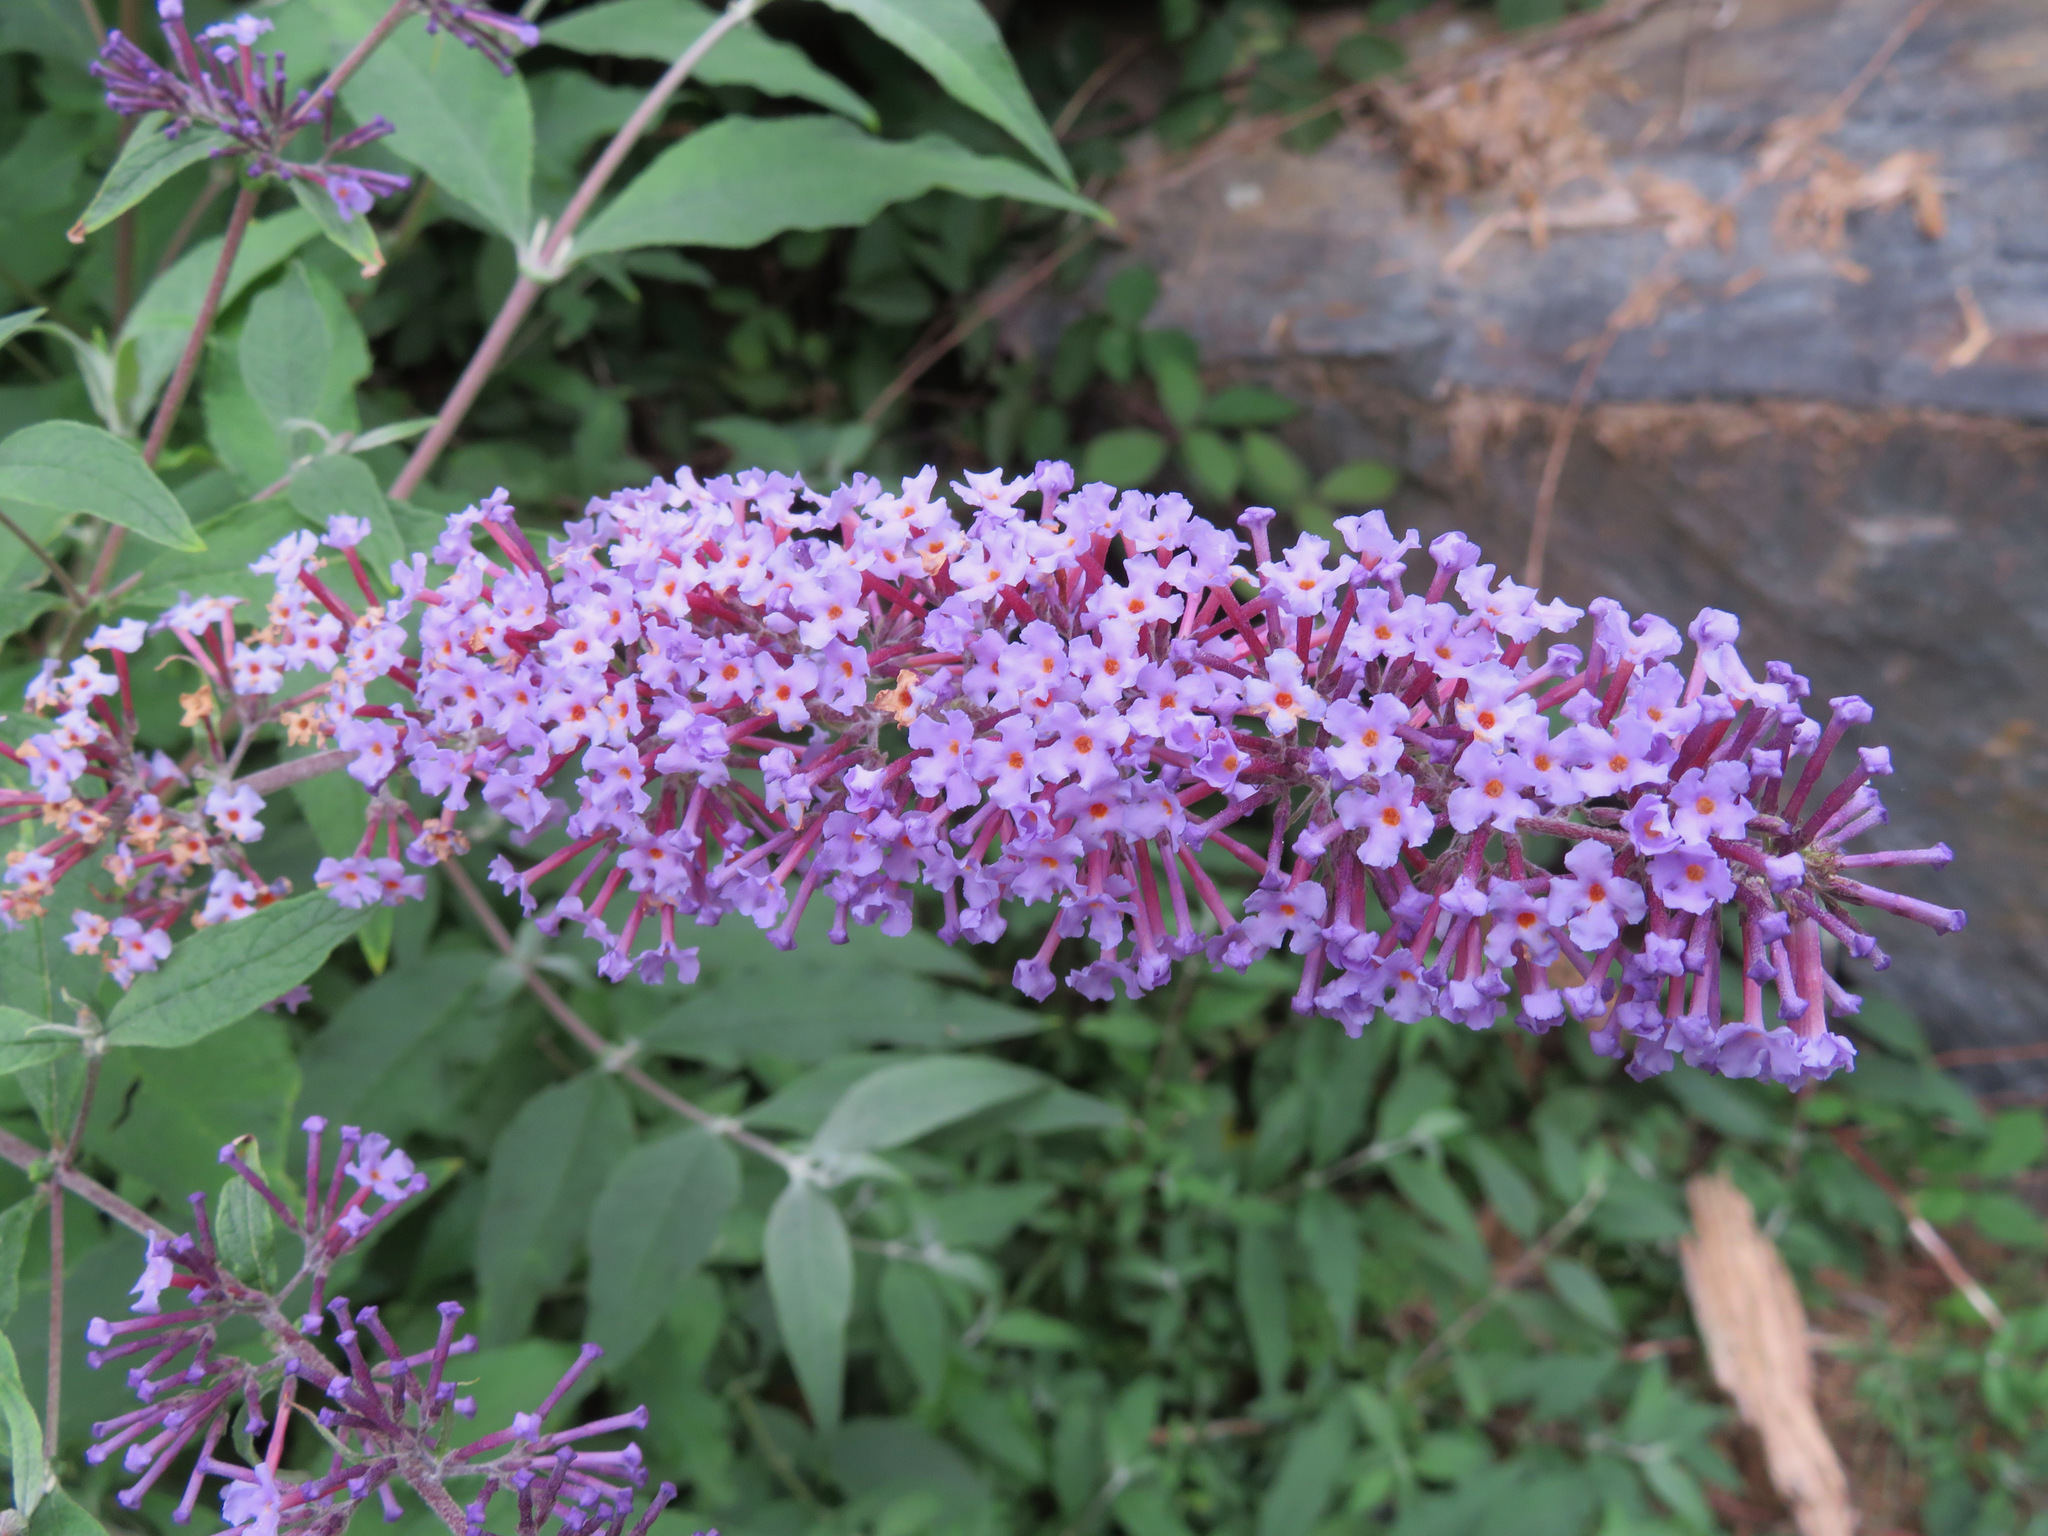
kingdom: Plantae
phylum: Tracheophyta
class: Magnoliopsida
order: Lamiales
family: Scrophulariaceae
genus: Buddleja
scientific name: Buddleja davidii
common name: Butterfly-bush
